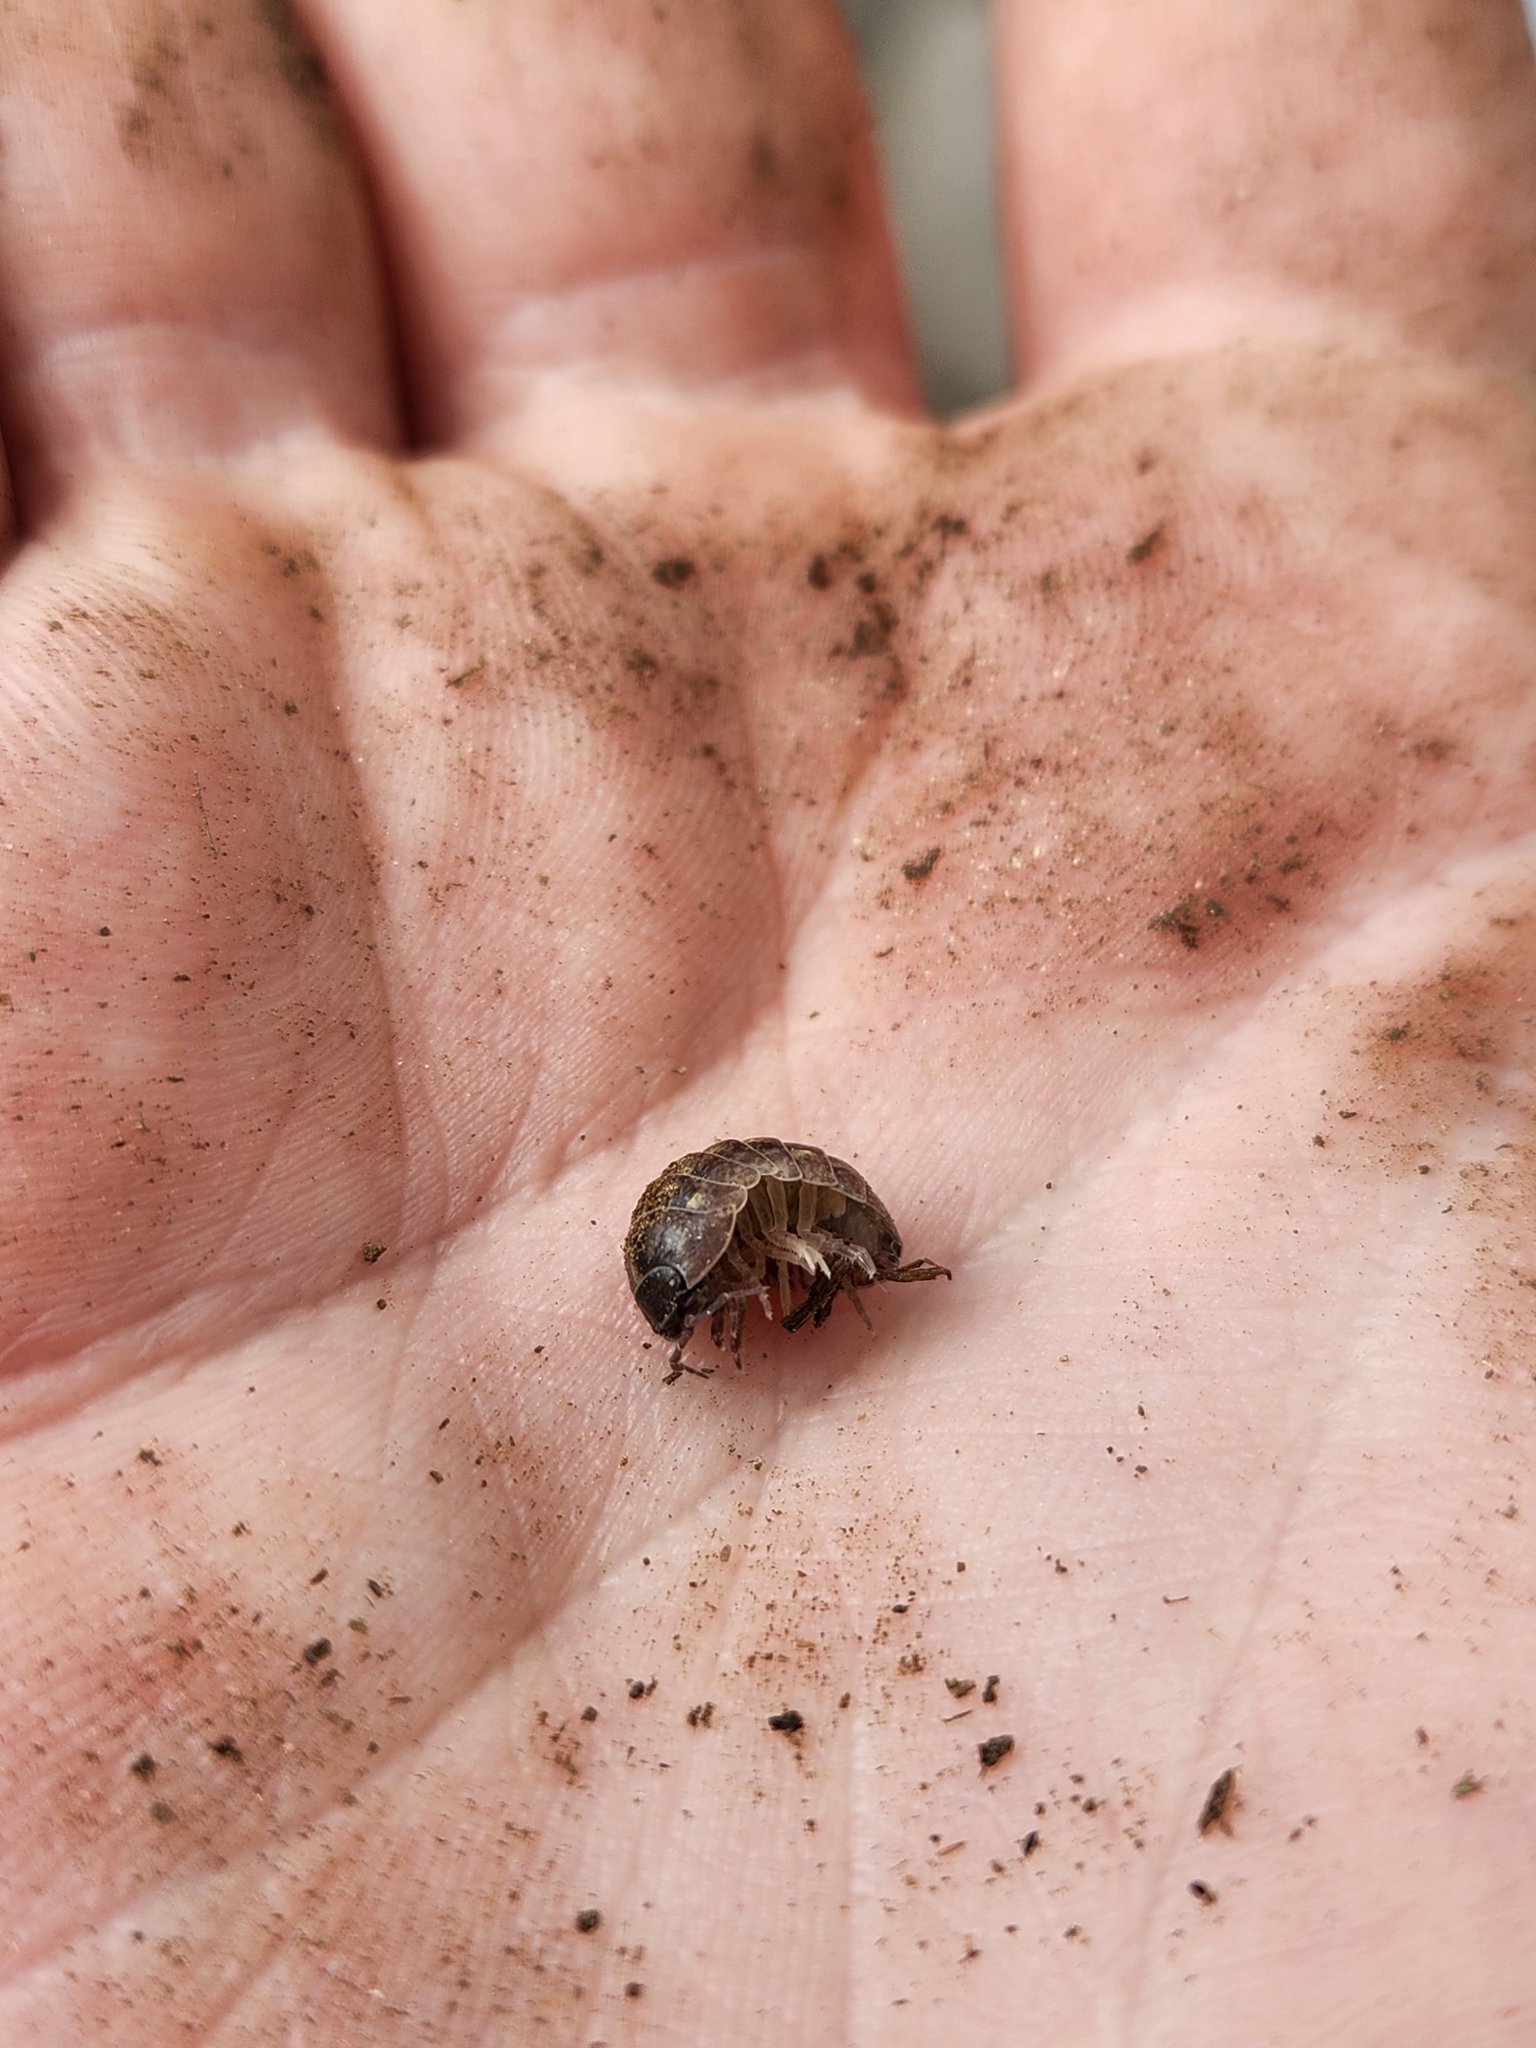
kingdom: Animalia
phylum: Arthropoda
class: Malacostraca
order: Isopoda
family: Armadillidiidae
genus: Armadillidium
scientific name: Armadillidium vulgare
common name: Common pill woodlouse
